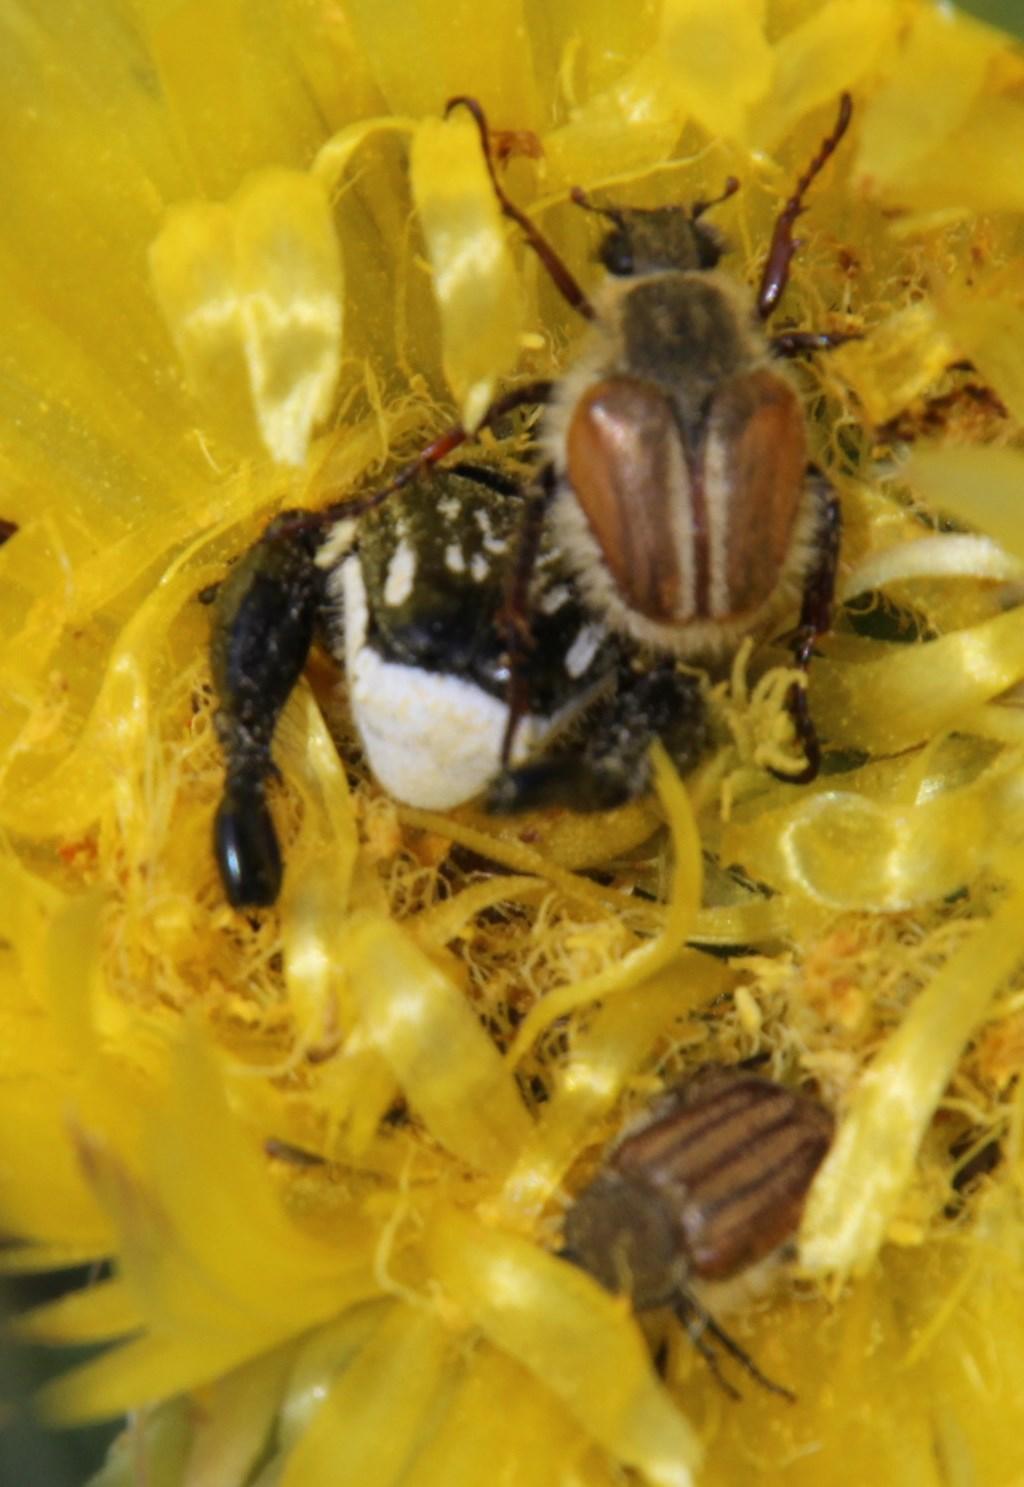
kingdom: Animalia
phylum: Arthropoda
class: Insecta
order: Coleoptera
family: Scarabaeidae
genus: Lepithrix
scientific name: Lepithrix longitarsis
